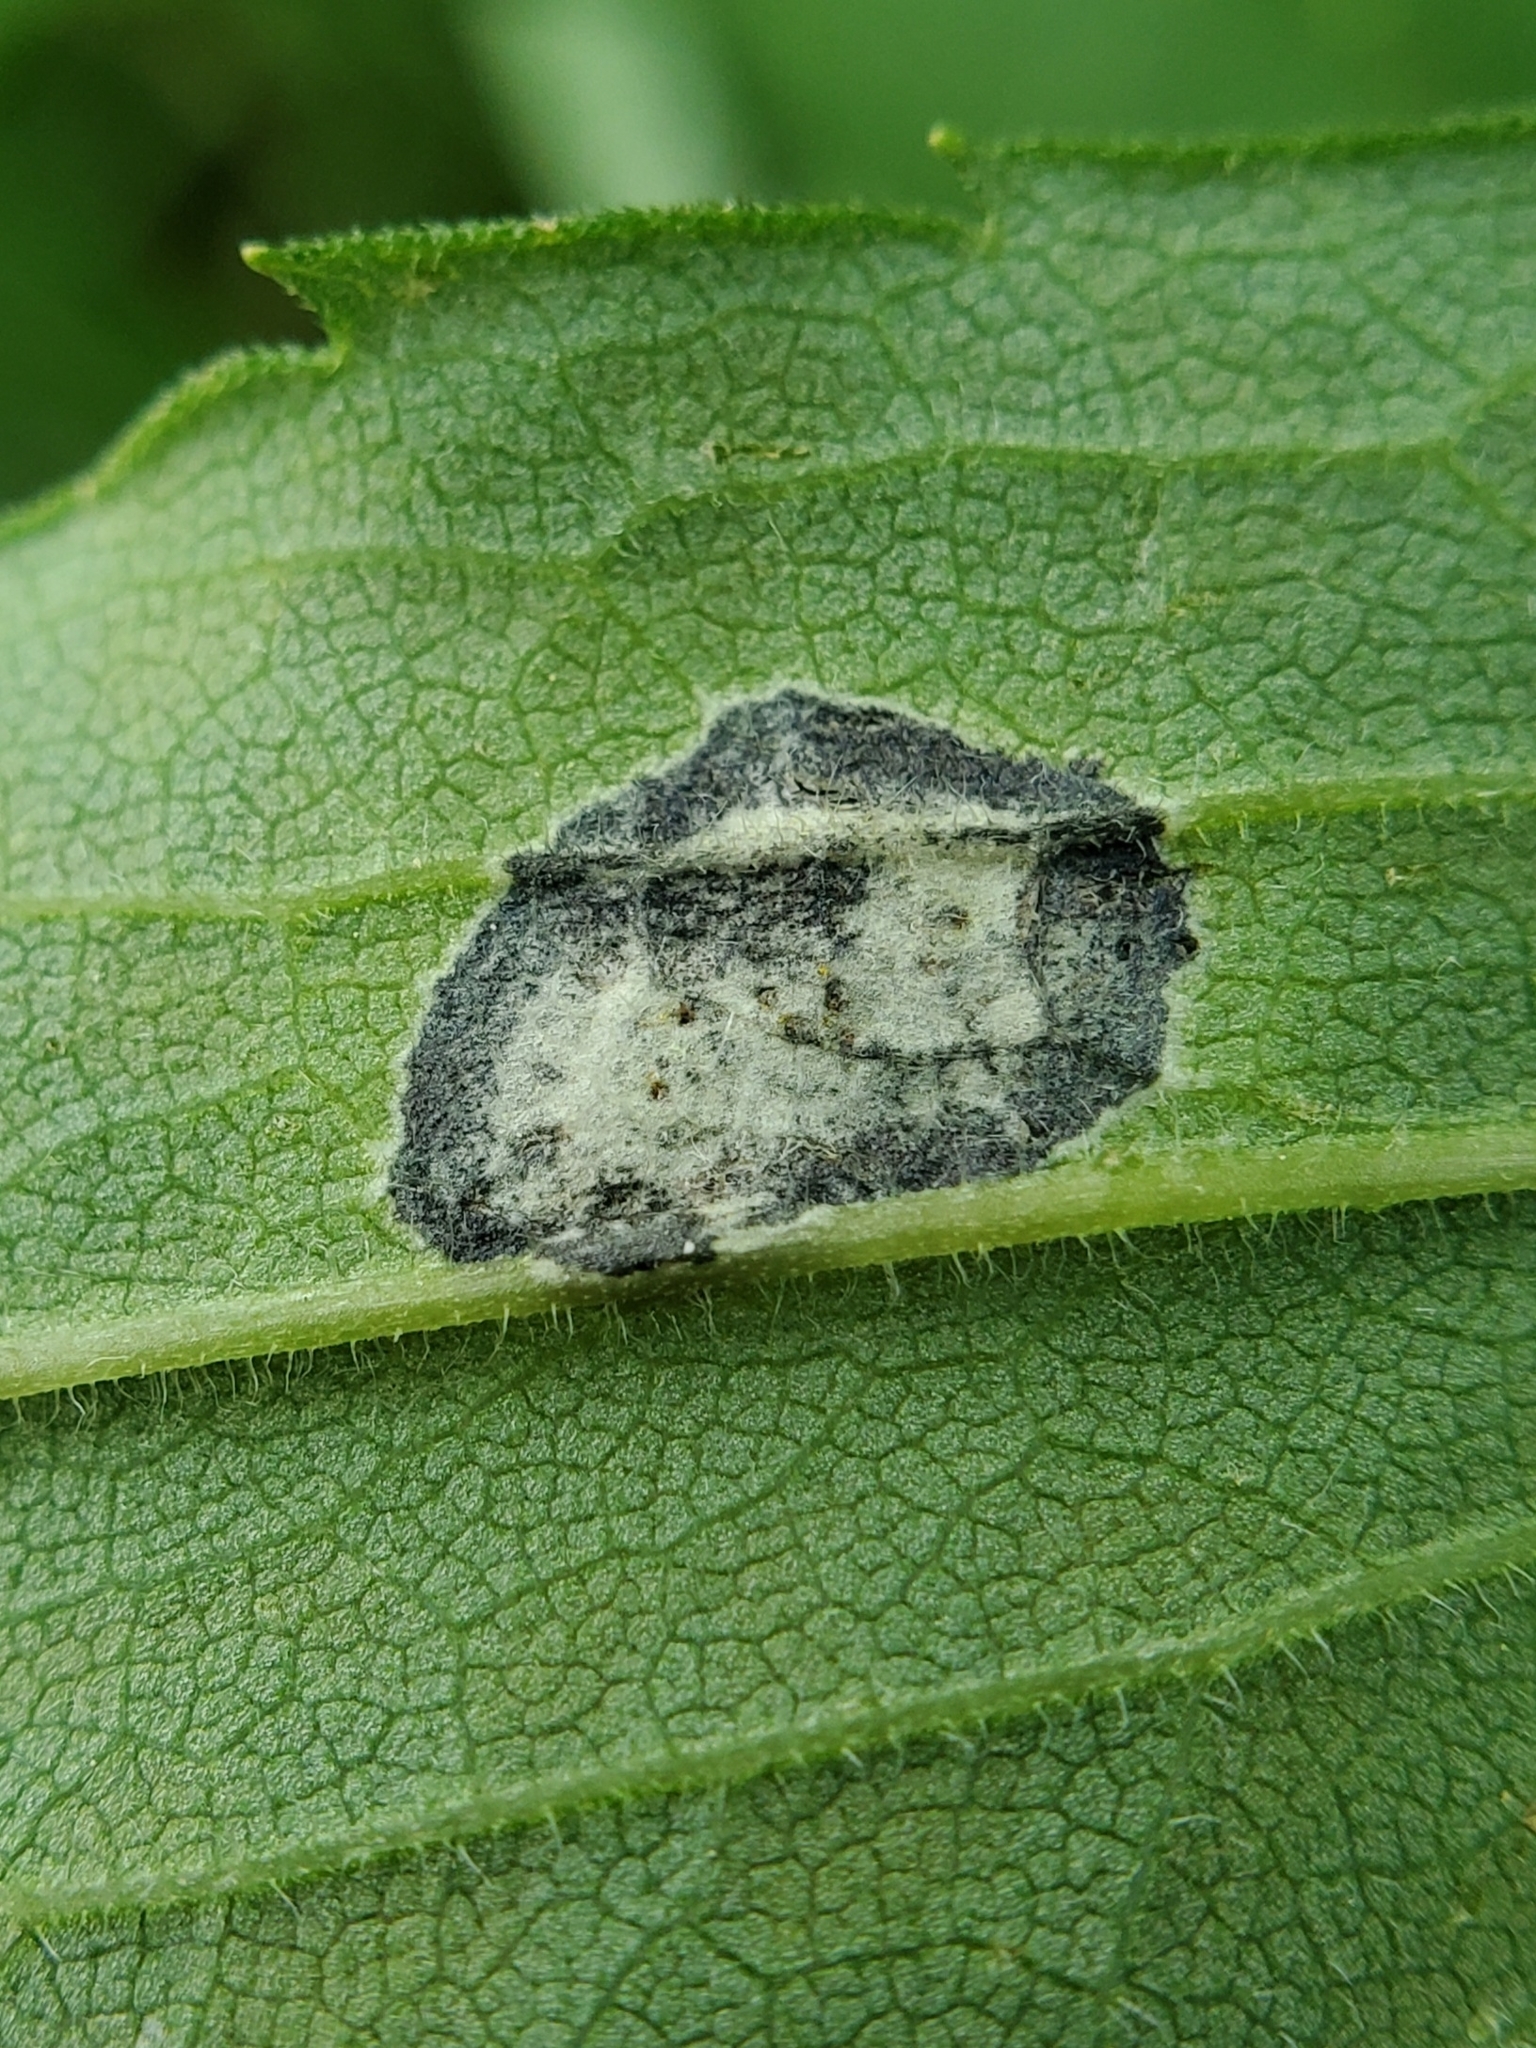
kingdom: Animalia
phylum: Arthropoda
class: Insecta
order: Diptera
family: Cecidomyiidae
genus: Asteromyia
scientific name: Asteromyia carbonifera
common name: Carbonifera goldenrod gall midge
